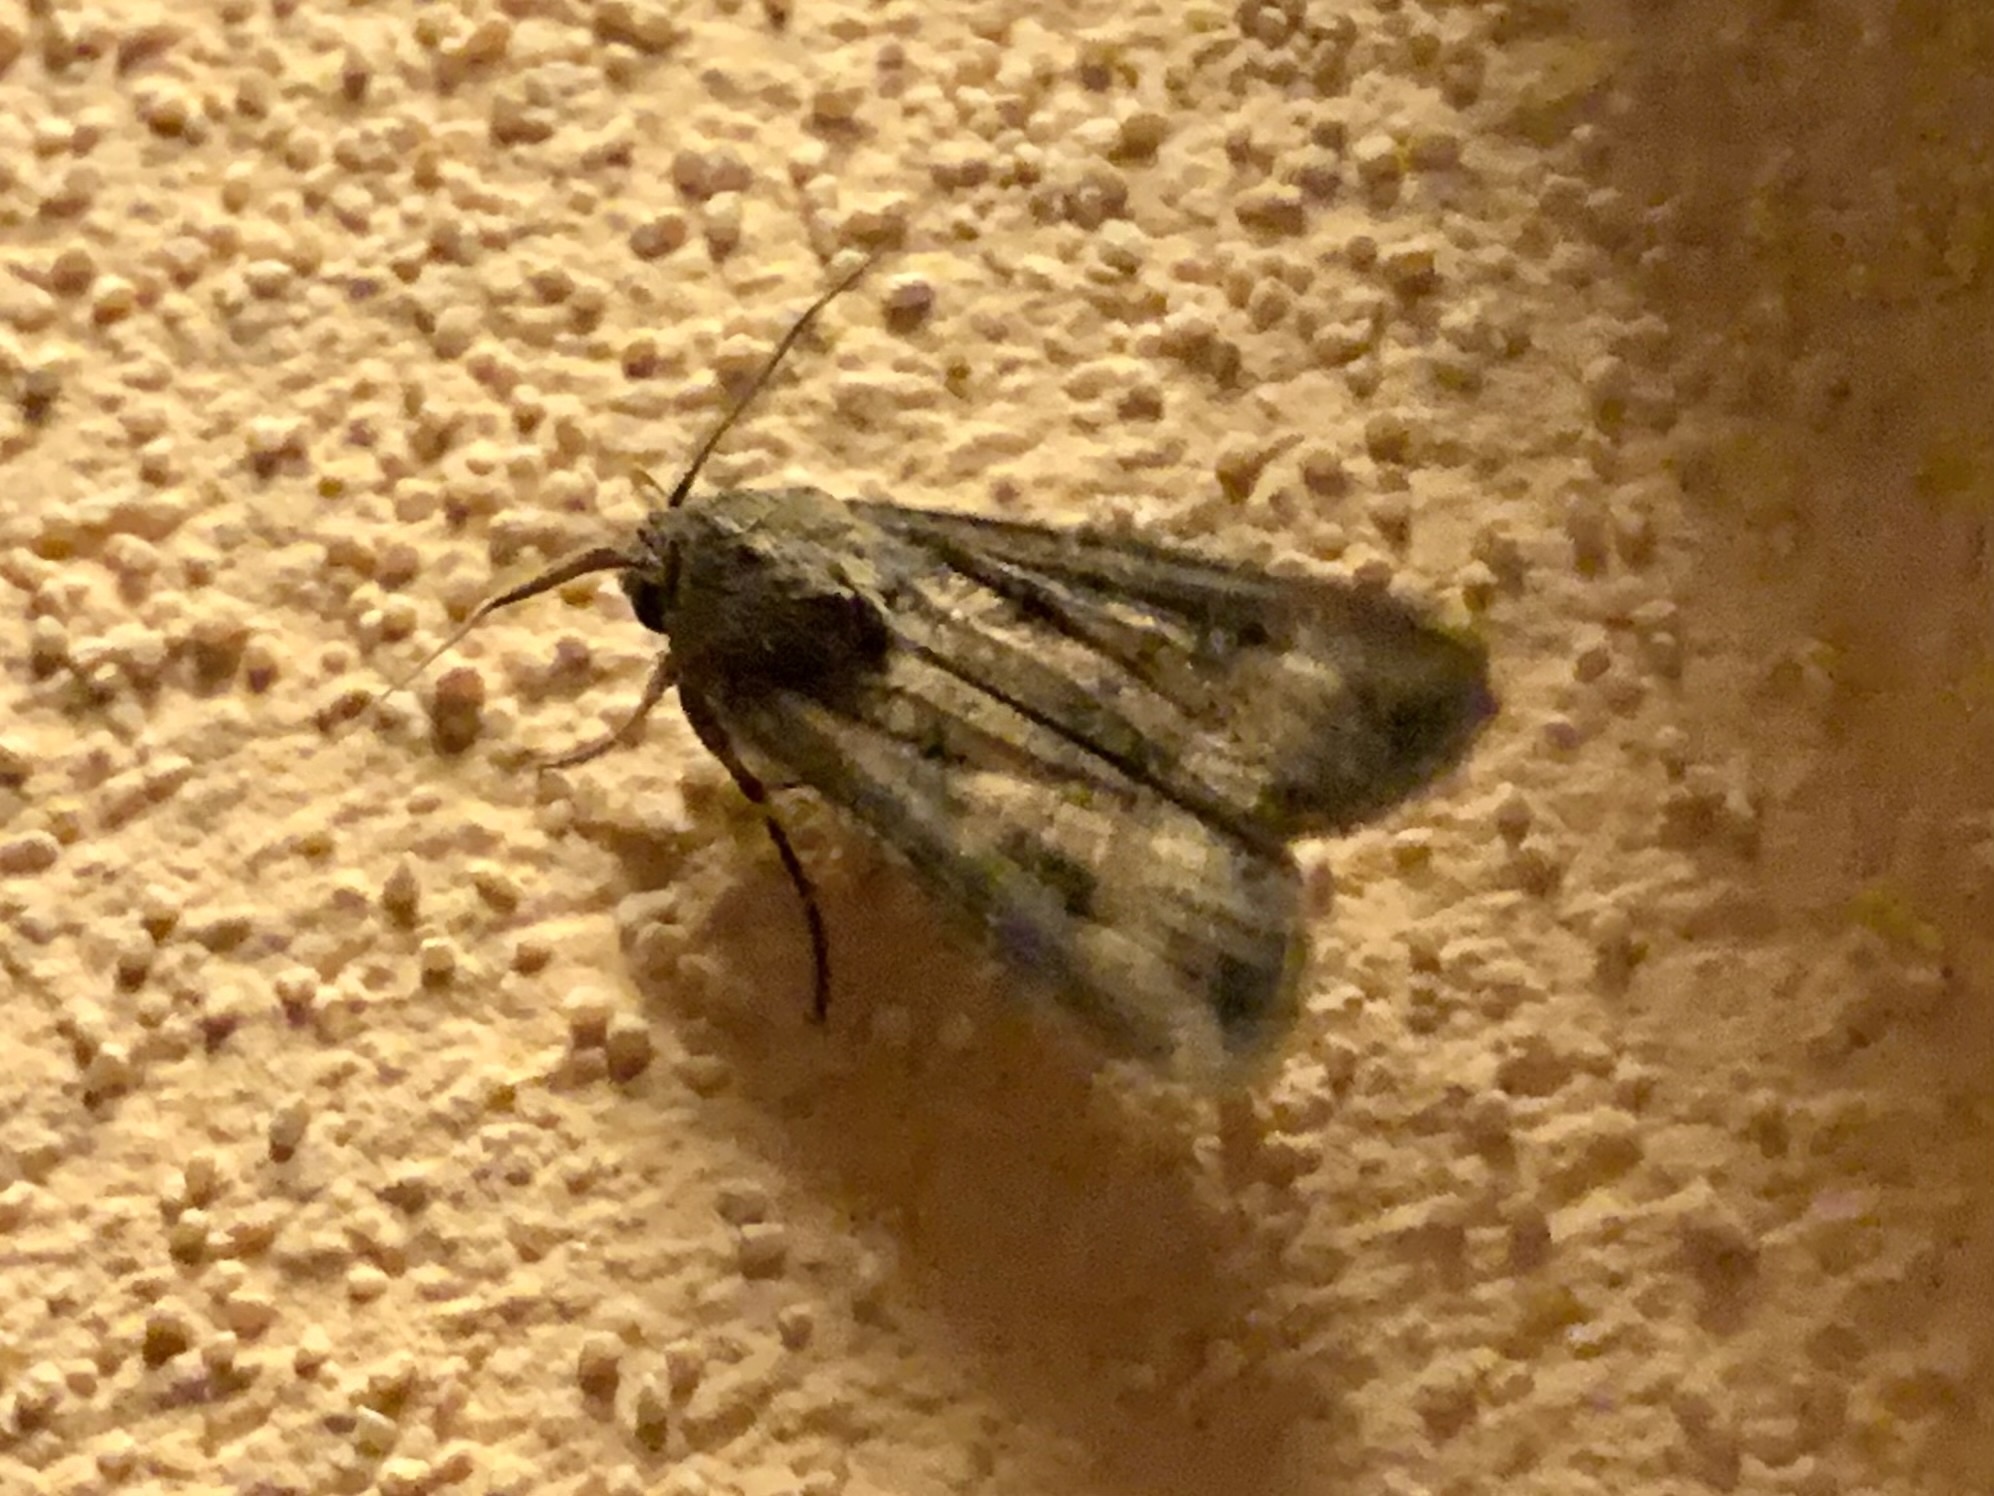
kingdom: Animalia
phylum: Arthropoda
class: Insecta
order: Lepidoptera
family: Noctuidae
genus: Agrotis
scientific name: Agrotis ipsilon
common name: Dark sword-grass
